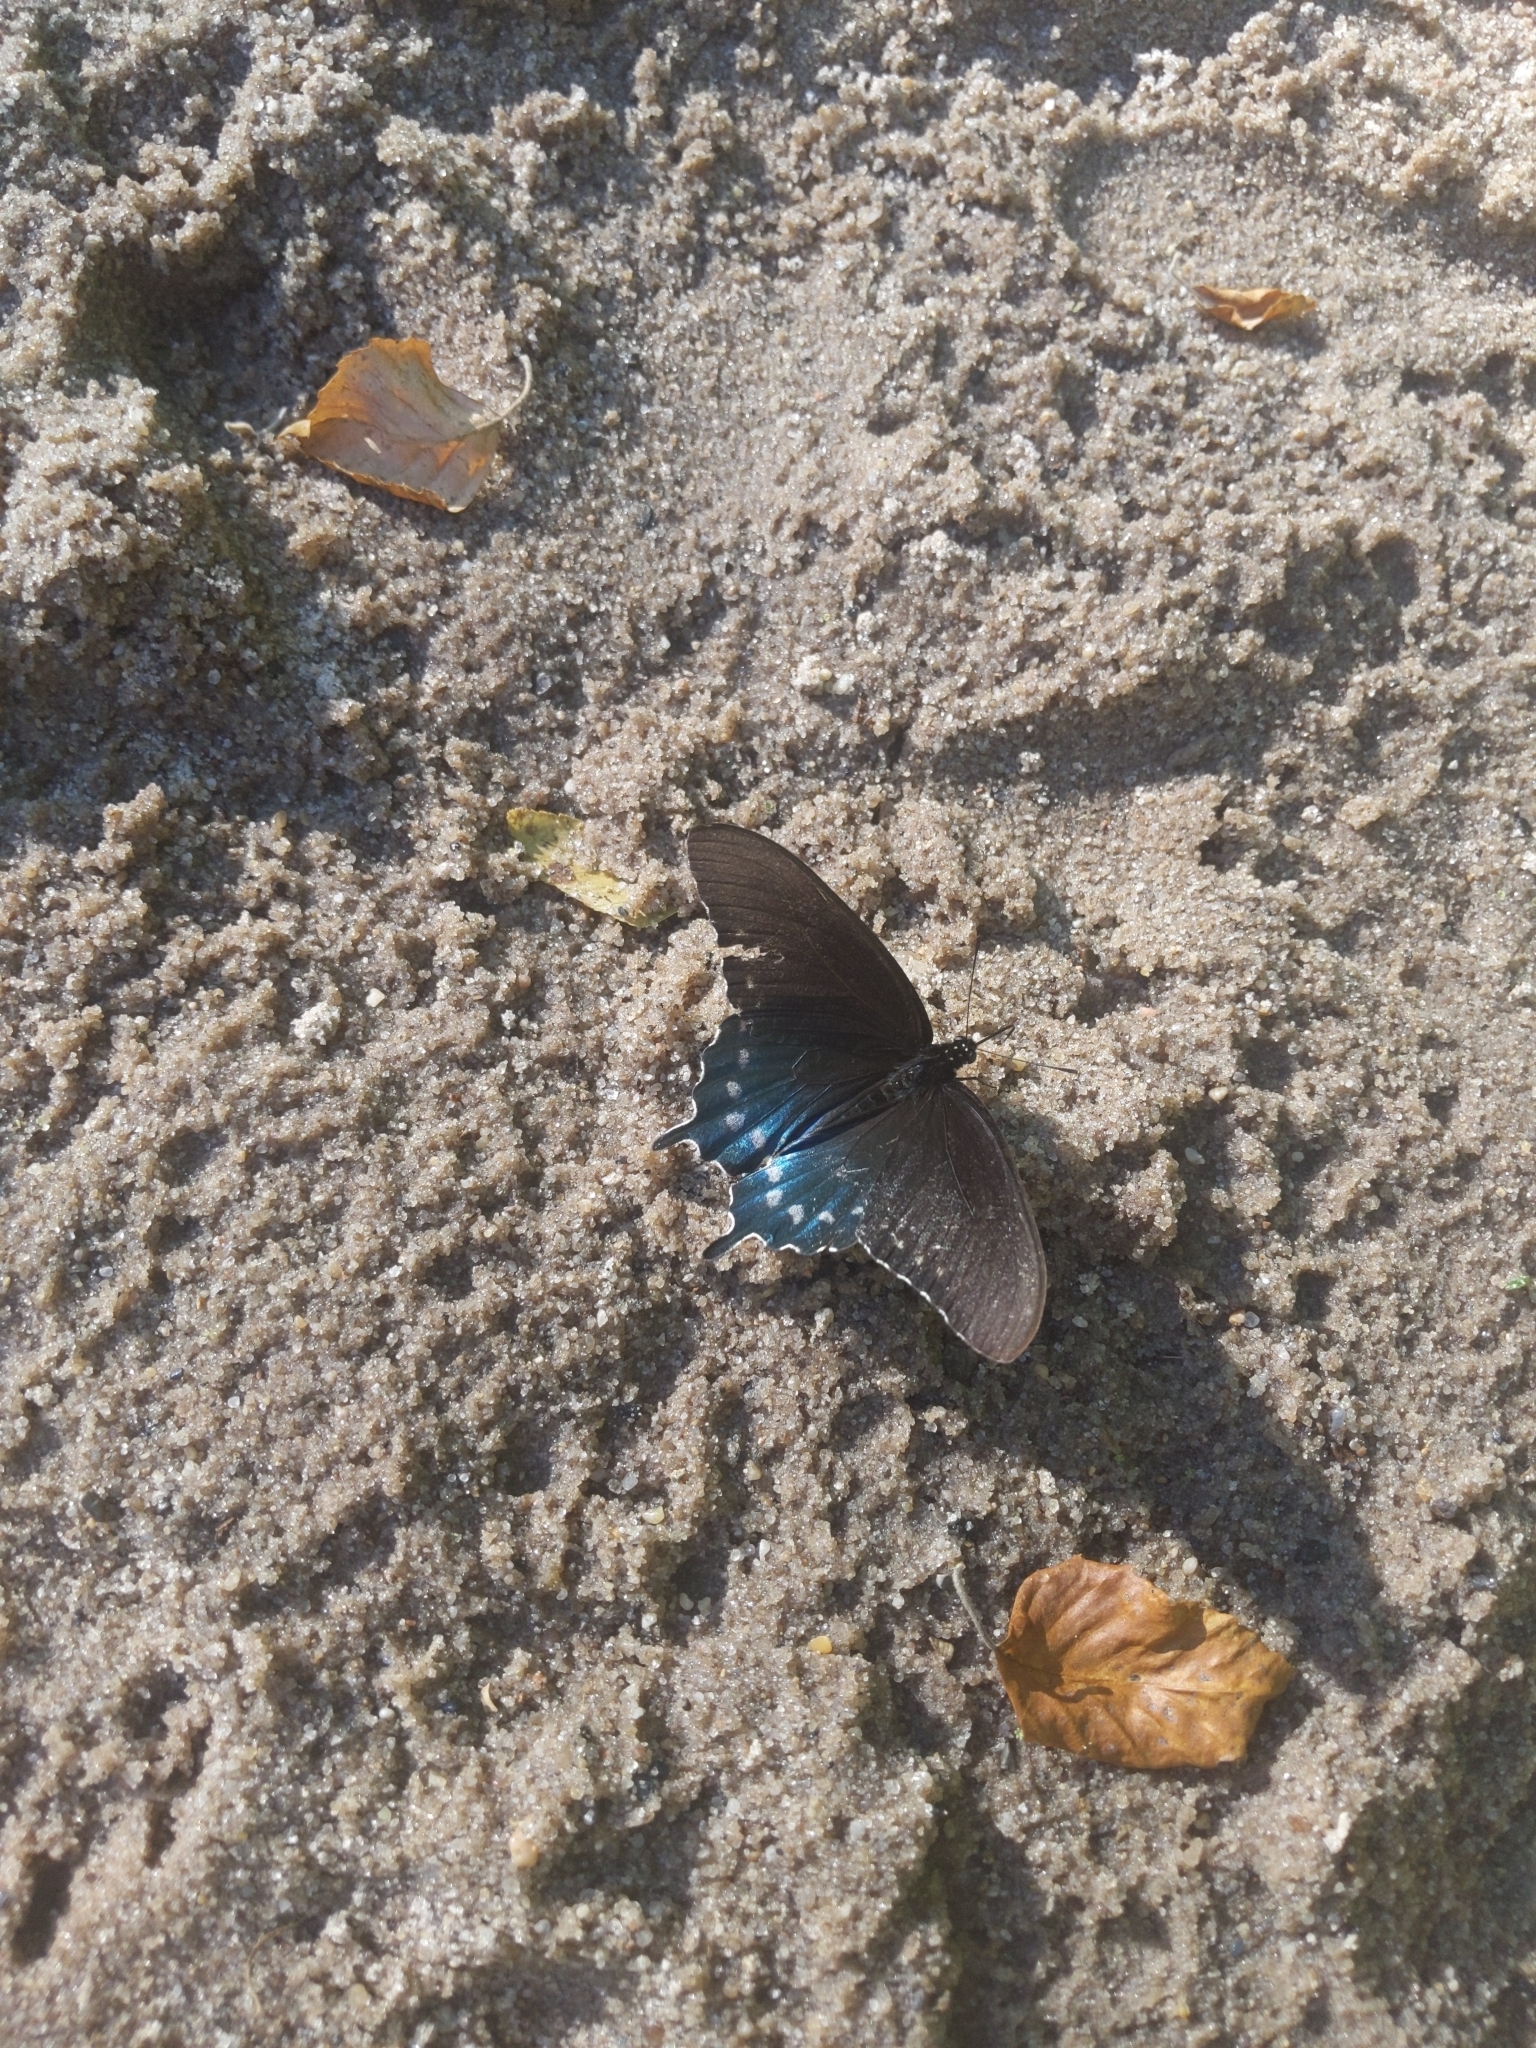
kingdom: Animalia
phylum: Arthropoda
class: Insecta
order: Lepidoptera
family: Papilionidae
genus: Battus
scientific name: Battus philenor
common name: Pipevine swallowtail
